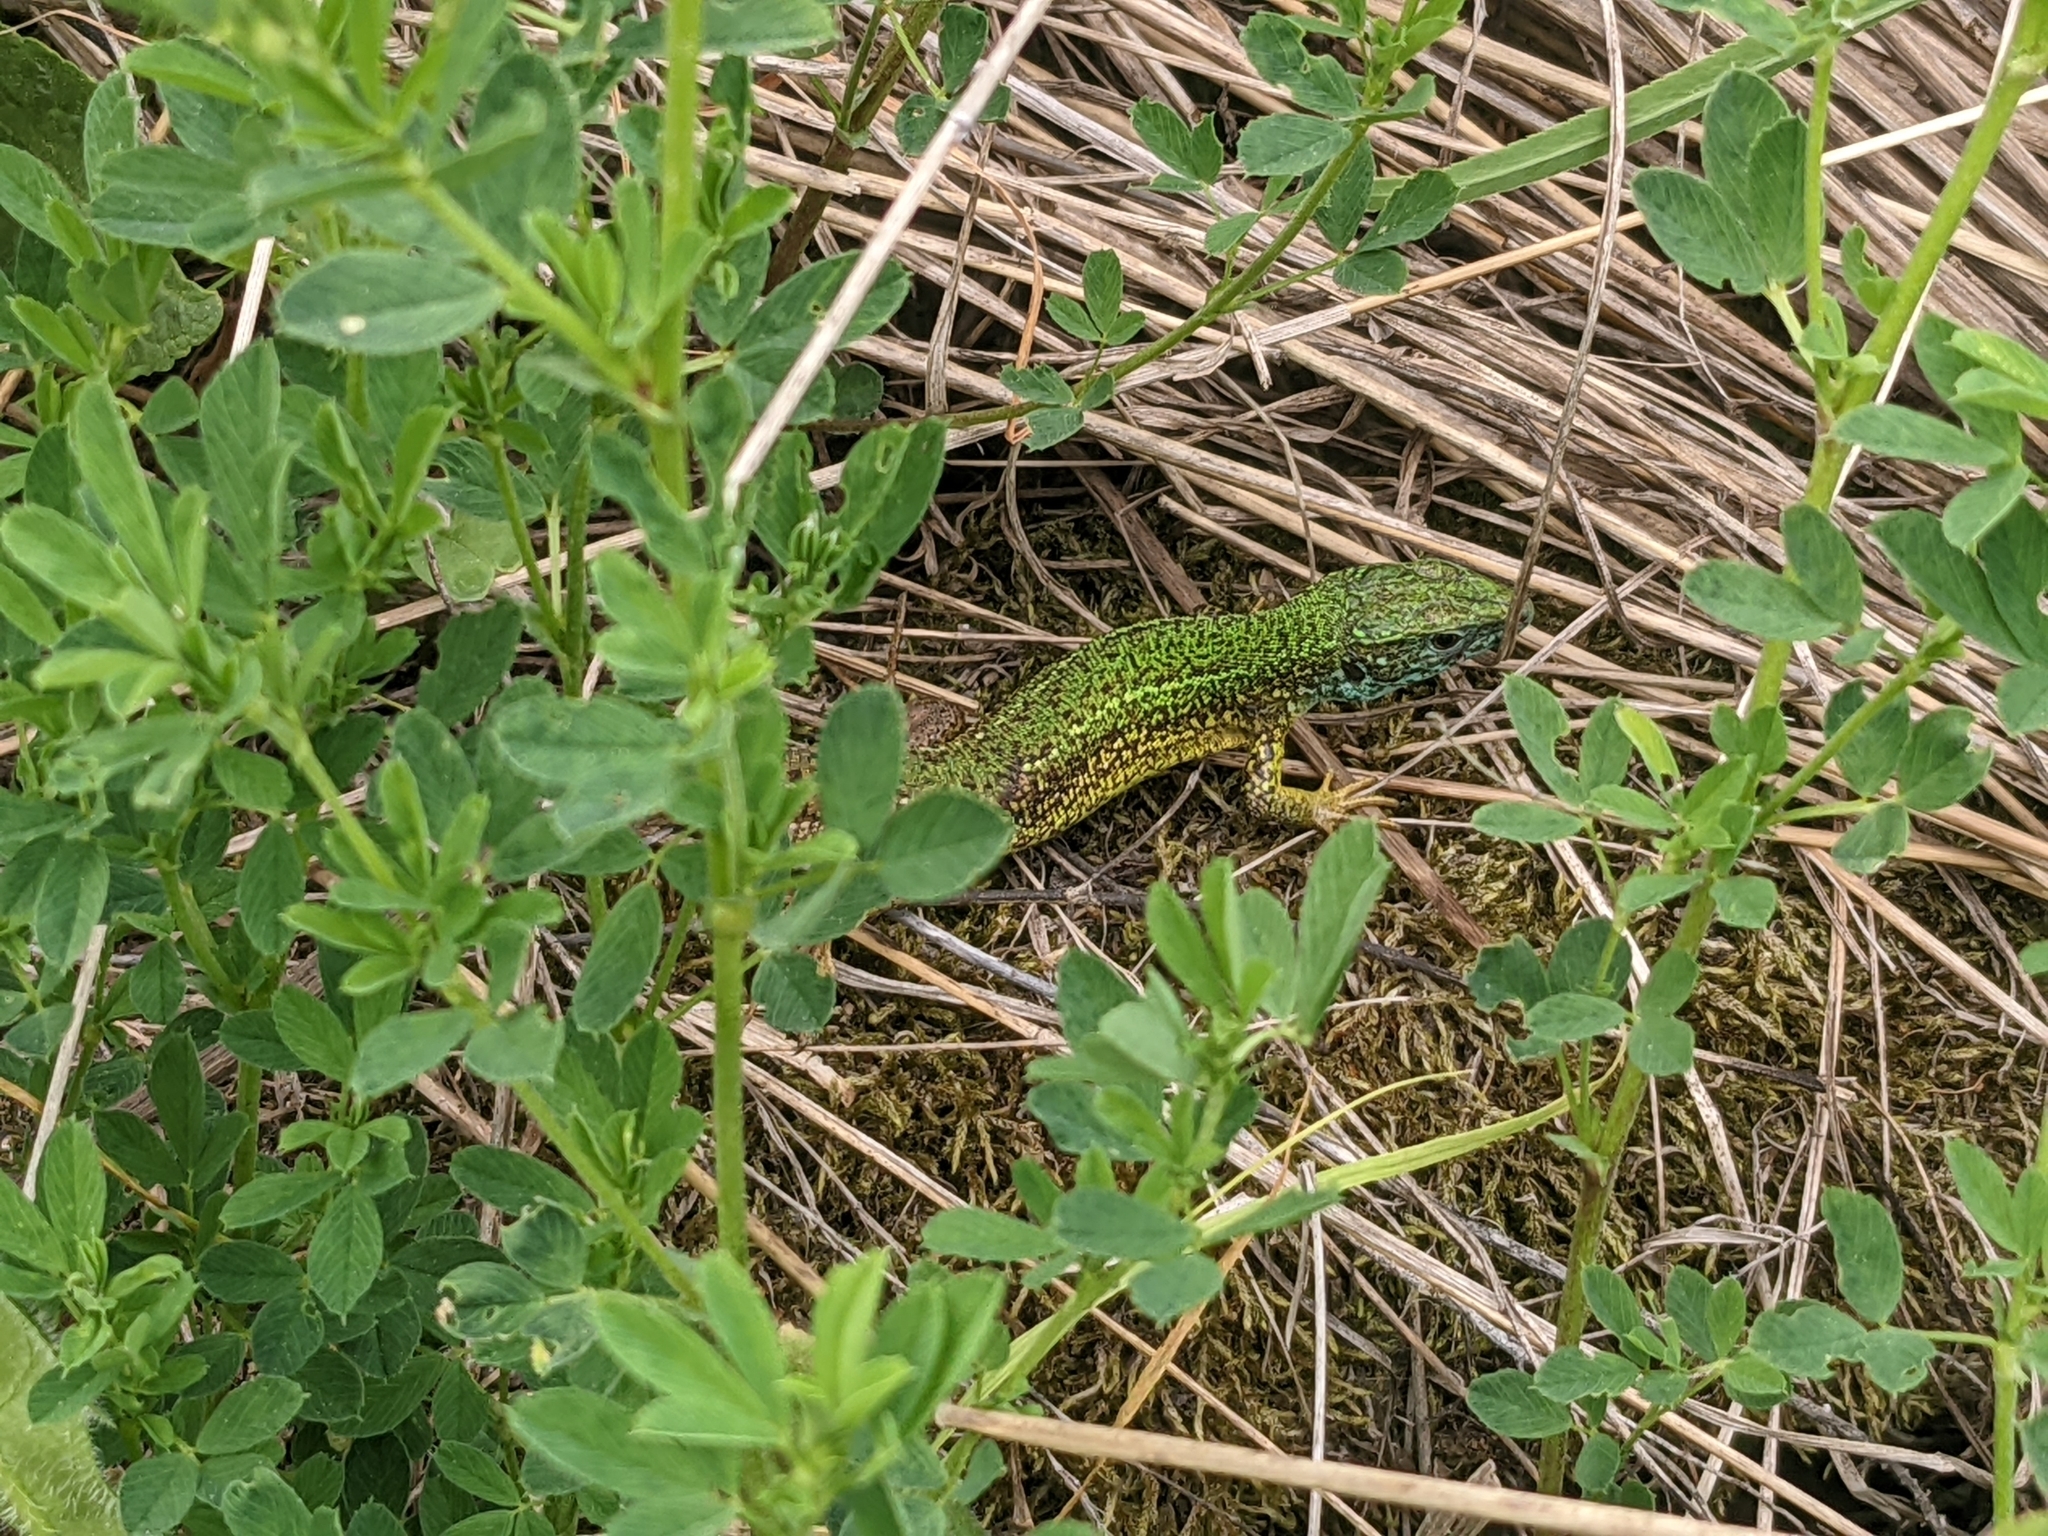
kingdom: Animalia
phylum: Chordata
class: Squamata
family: Lacertidae
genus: Lacerta
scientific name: Lacerta viridis
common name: European green lizard
